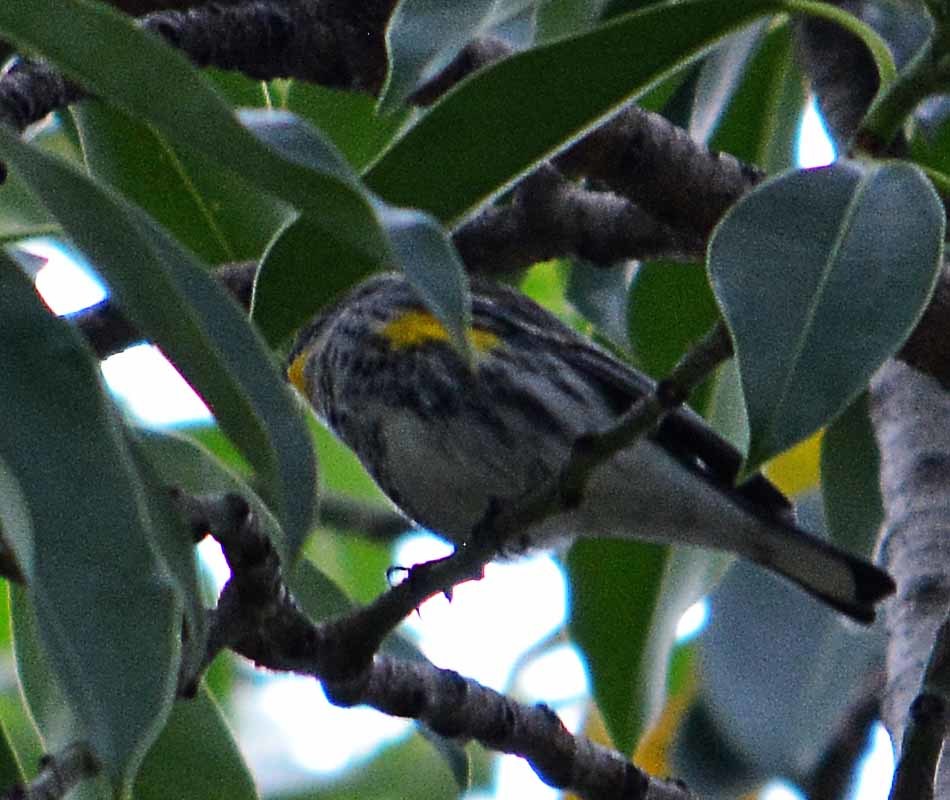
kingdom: Animalia
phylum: Chordata
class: Aves
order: Passeriformes
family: Parulidae
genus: Setophaga
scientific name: Setophaga coronata
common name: Myrtle warbler
